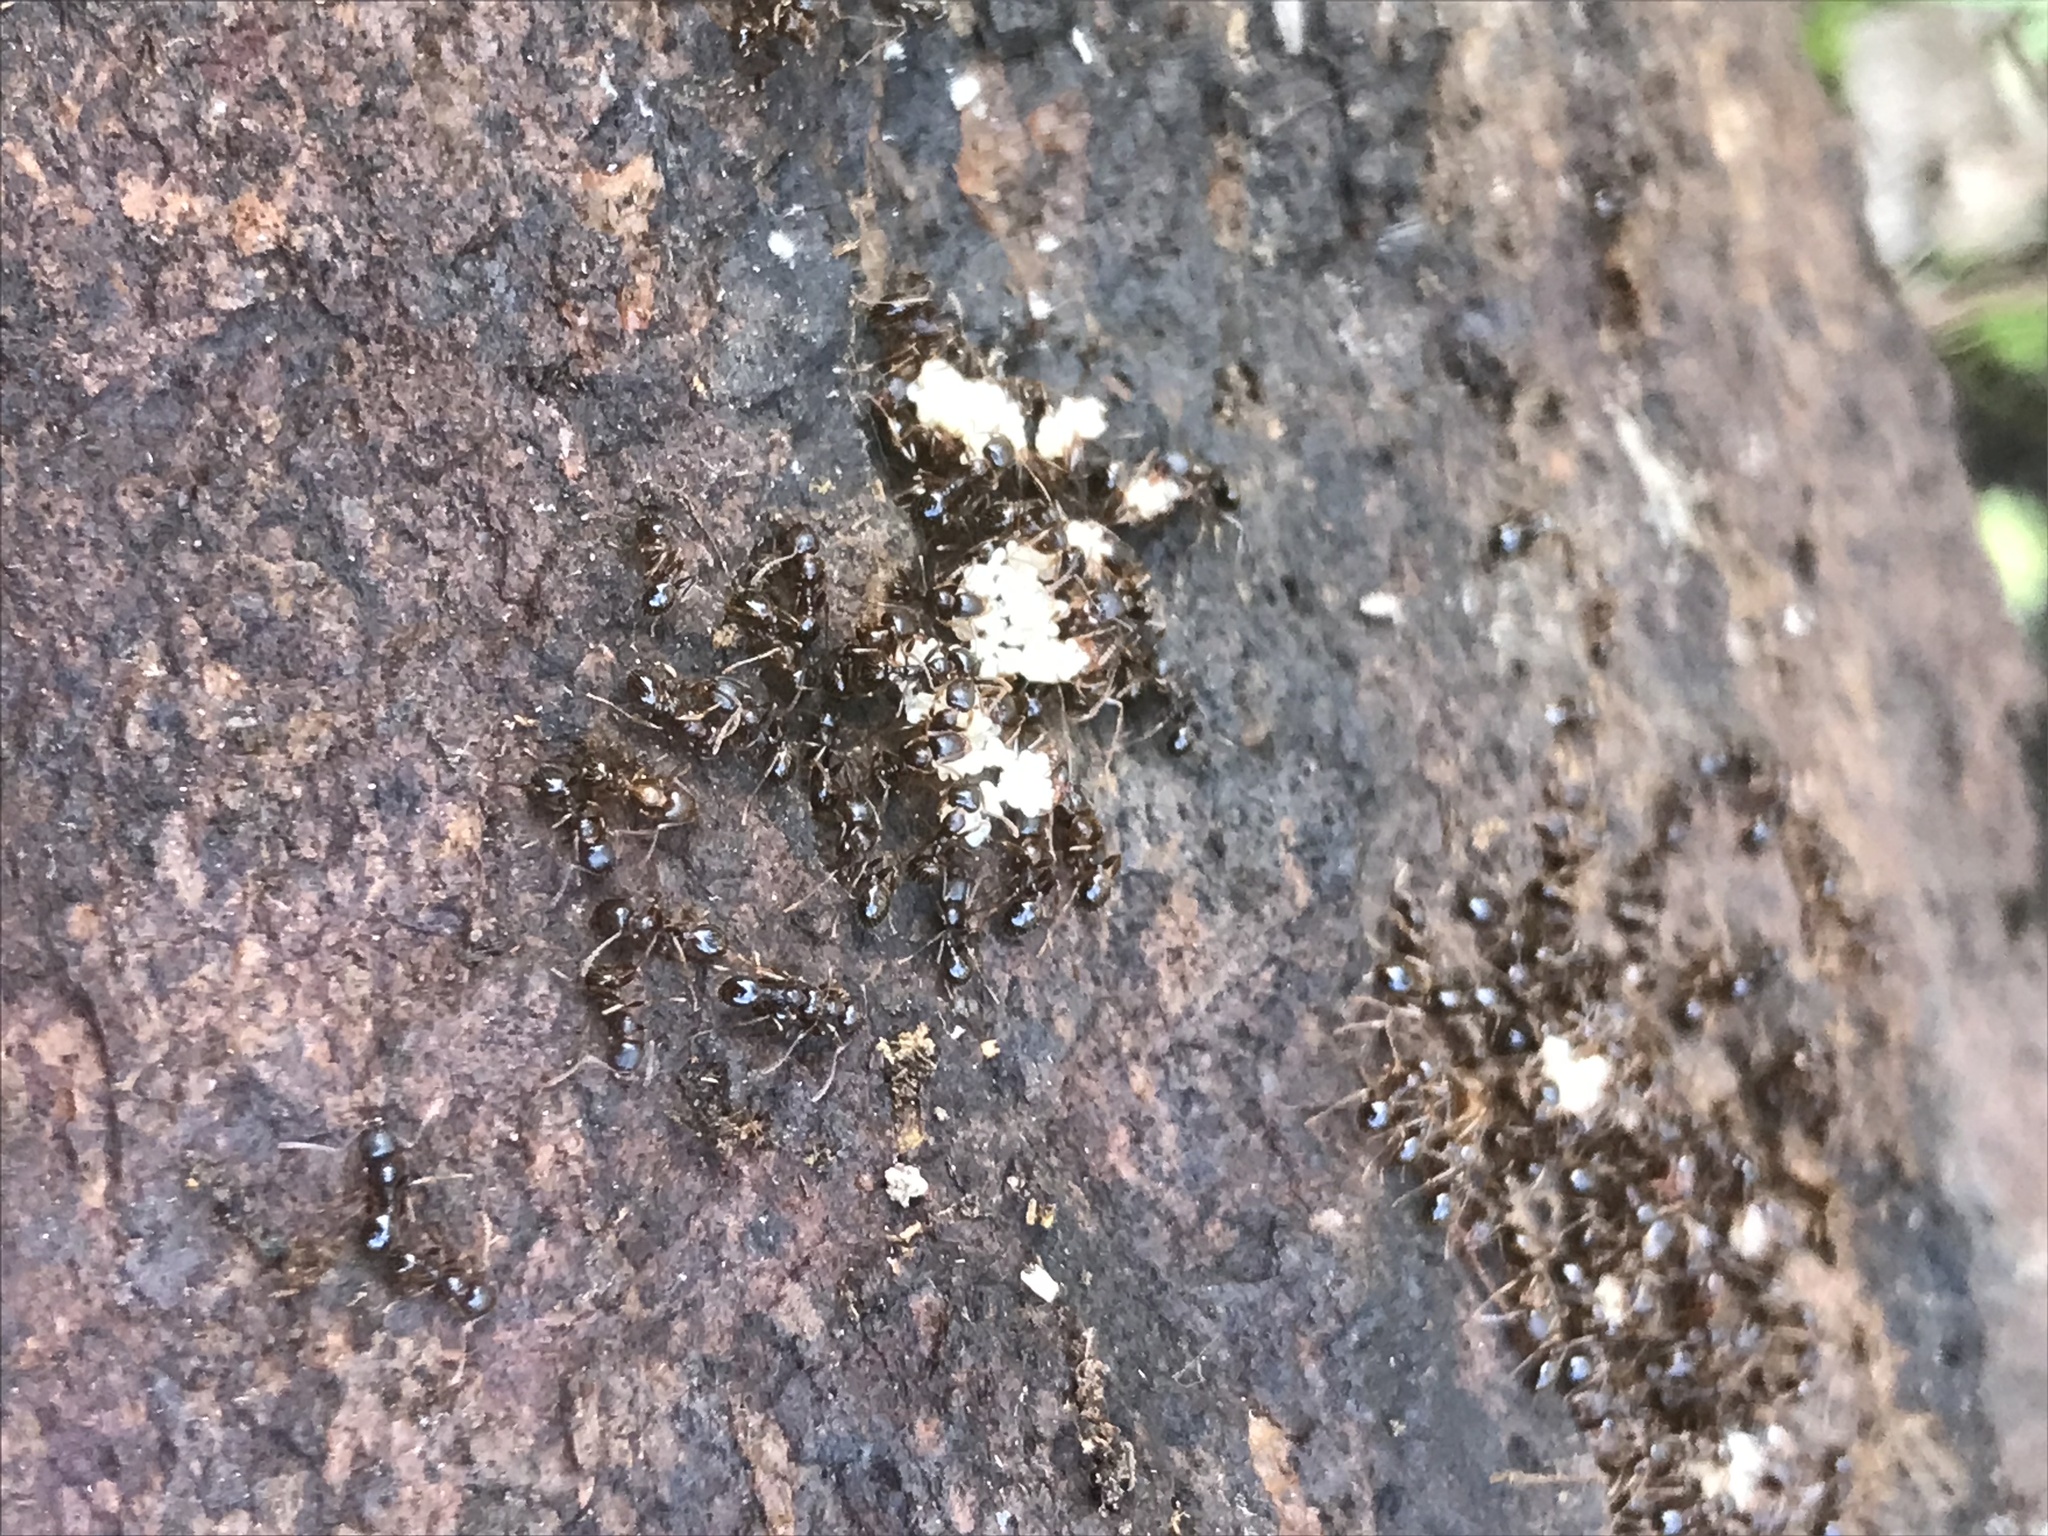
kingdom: Animalia
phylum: Arthropoda
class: Insecta
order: Hymenoptera
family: Formicidae
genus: Aphaenogaster
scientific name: Aphaenogaster occidentalis
